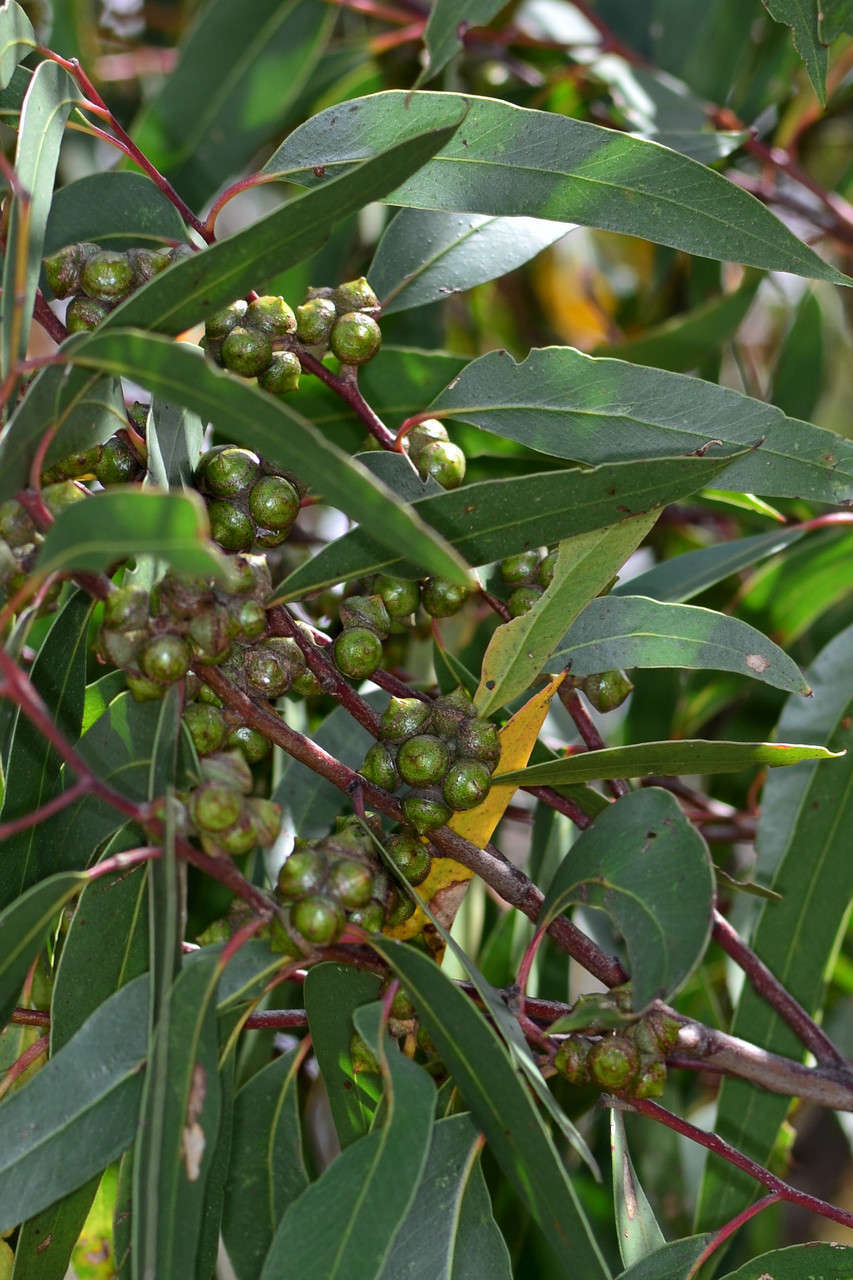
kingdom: Plantae
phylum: Tracheophyta
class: Magnoliopsida
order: Myrtales
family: Myrtaceae
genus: Eucalyptus
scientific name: Eucalyptus macrorhyncha
